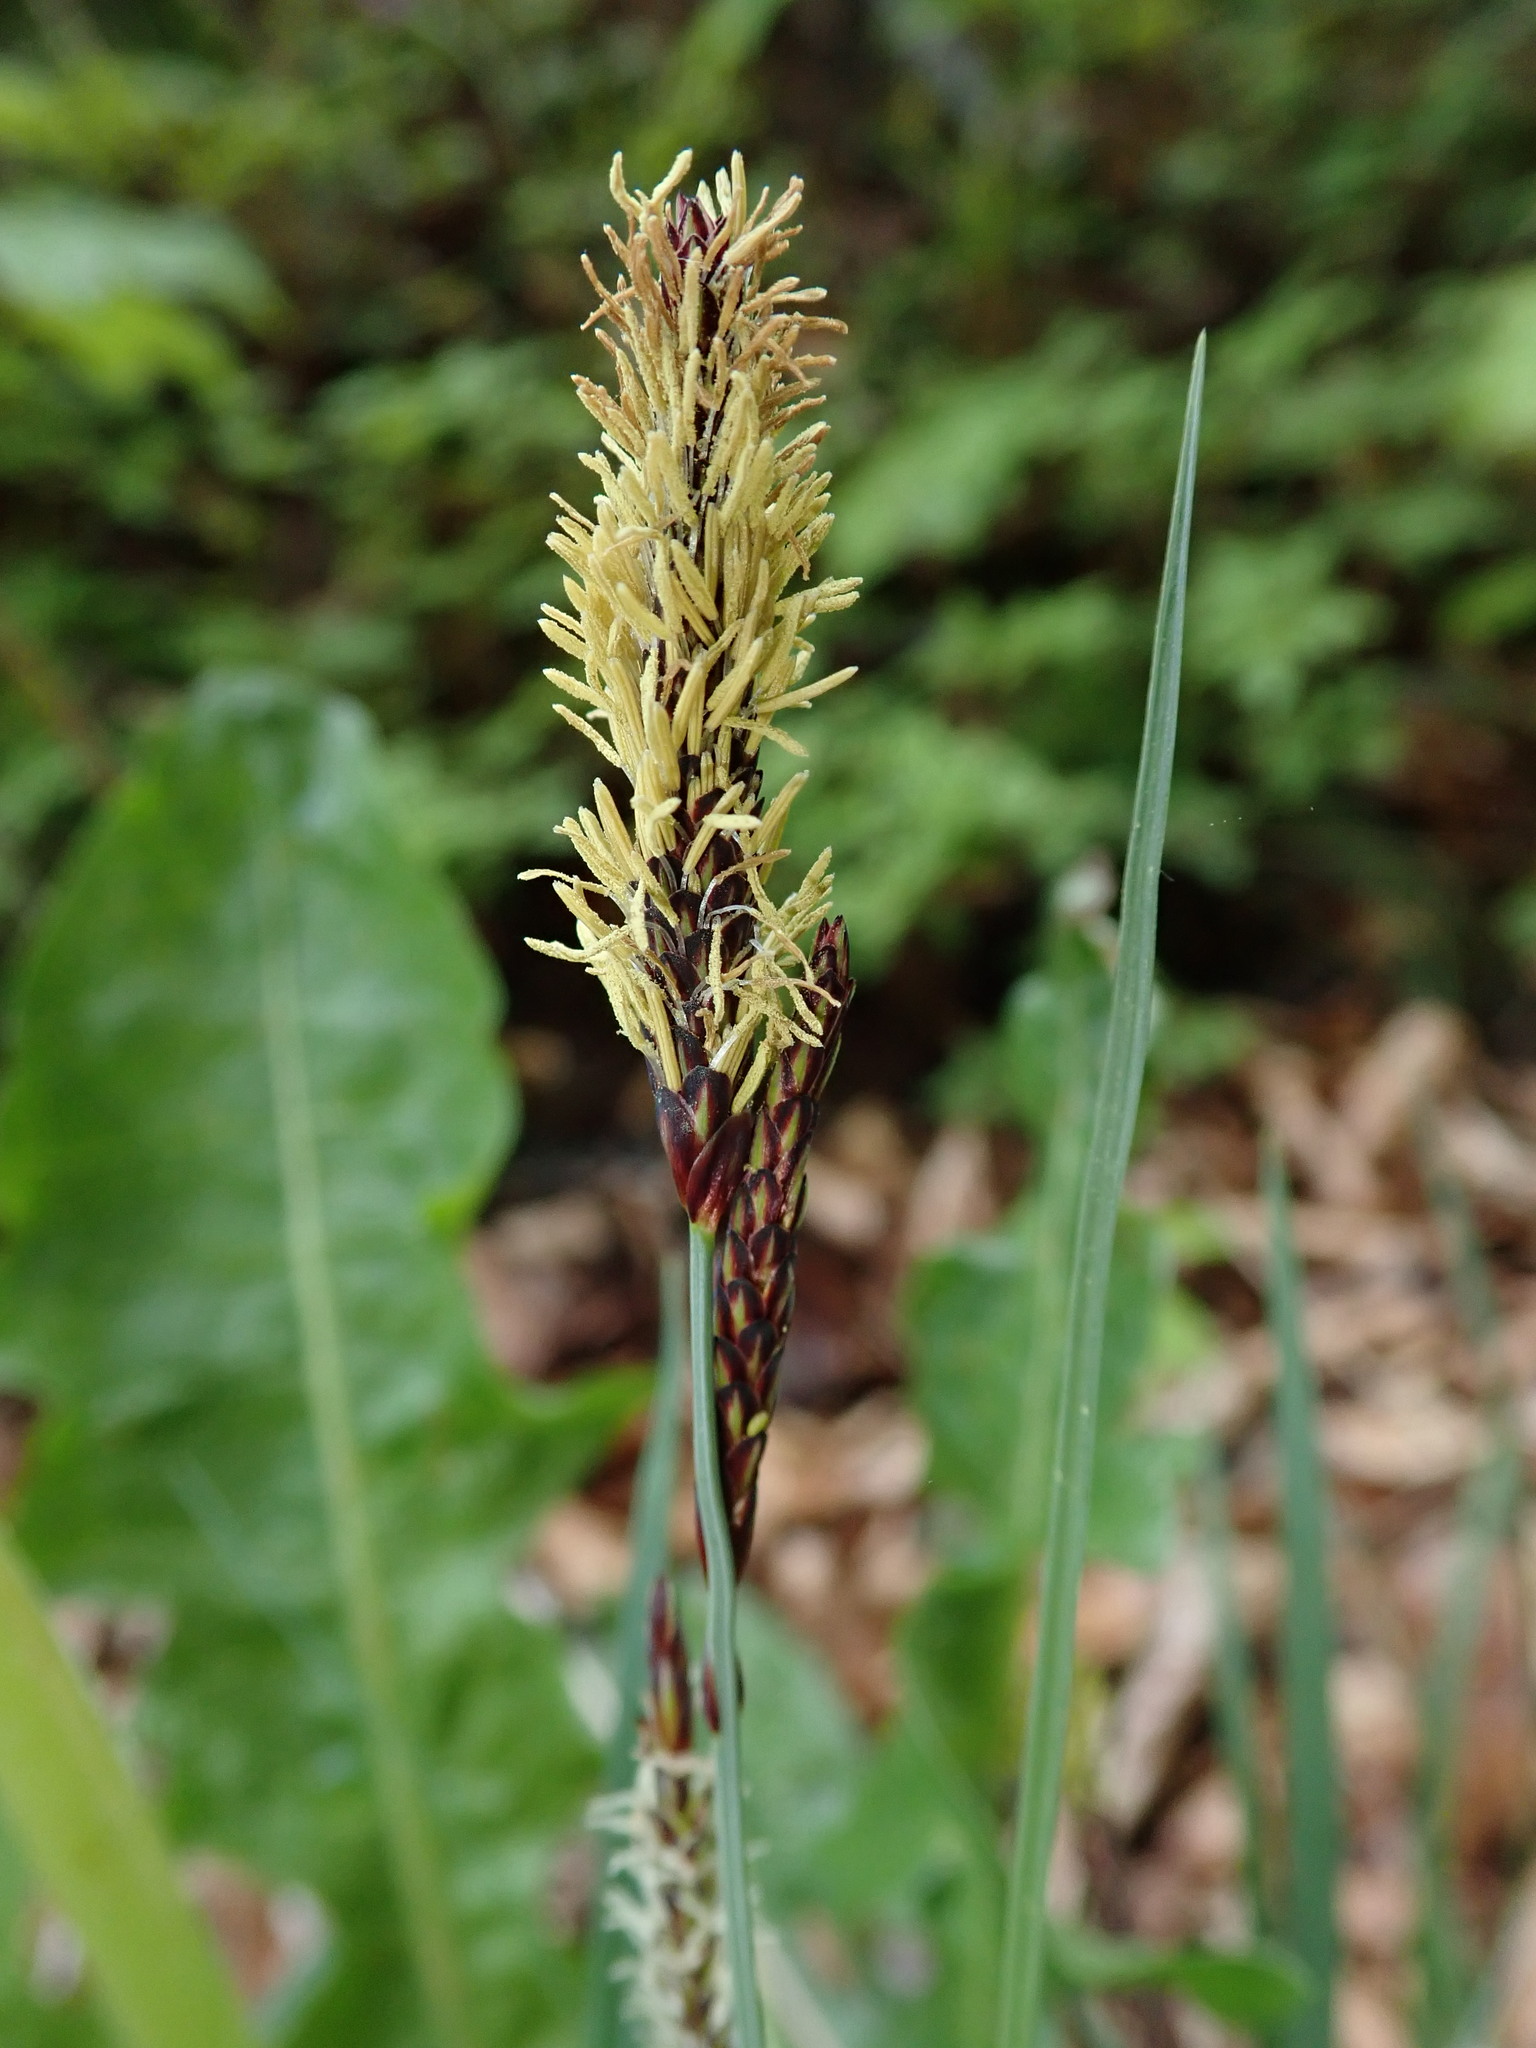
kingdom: Plantae
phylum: Tracheophyta
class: Liliopsida
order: Poales
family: Cyperaceae
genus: Carex
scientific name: Carex flacca
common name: Glaucous sedge
